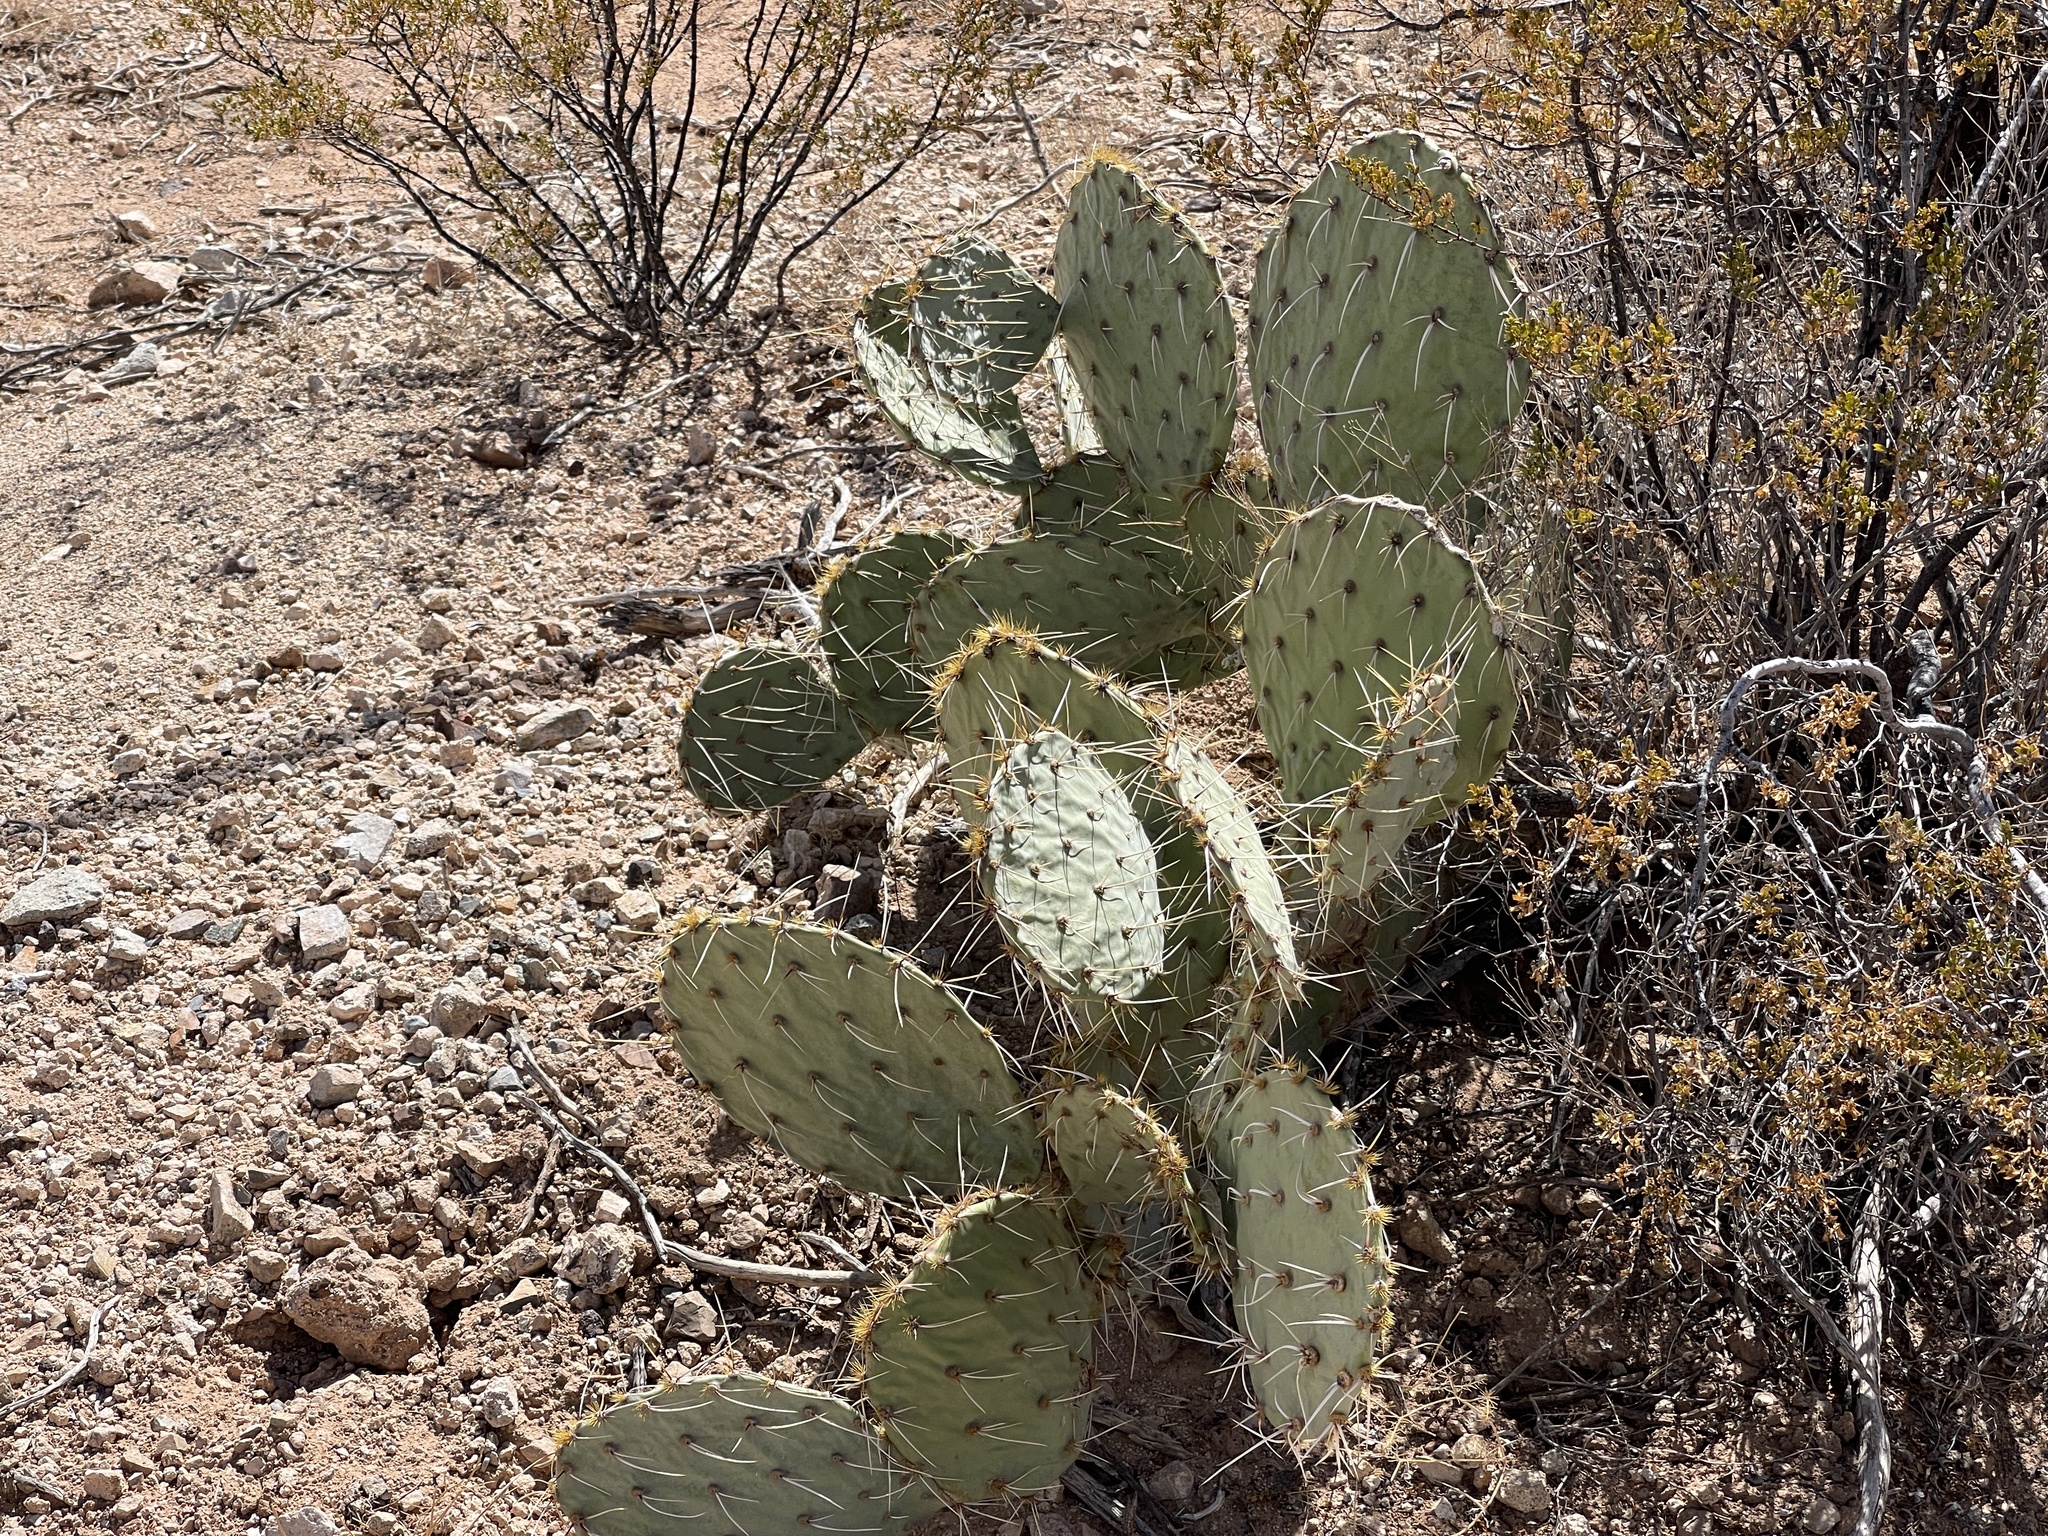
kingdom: Plantae
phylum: Tracheophyta
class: Magnoliopsida
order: Caryophyllales
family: Cactaceae
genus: Opuntia
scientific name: Opuntia engelmannii
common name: Cactus-apple
